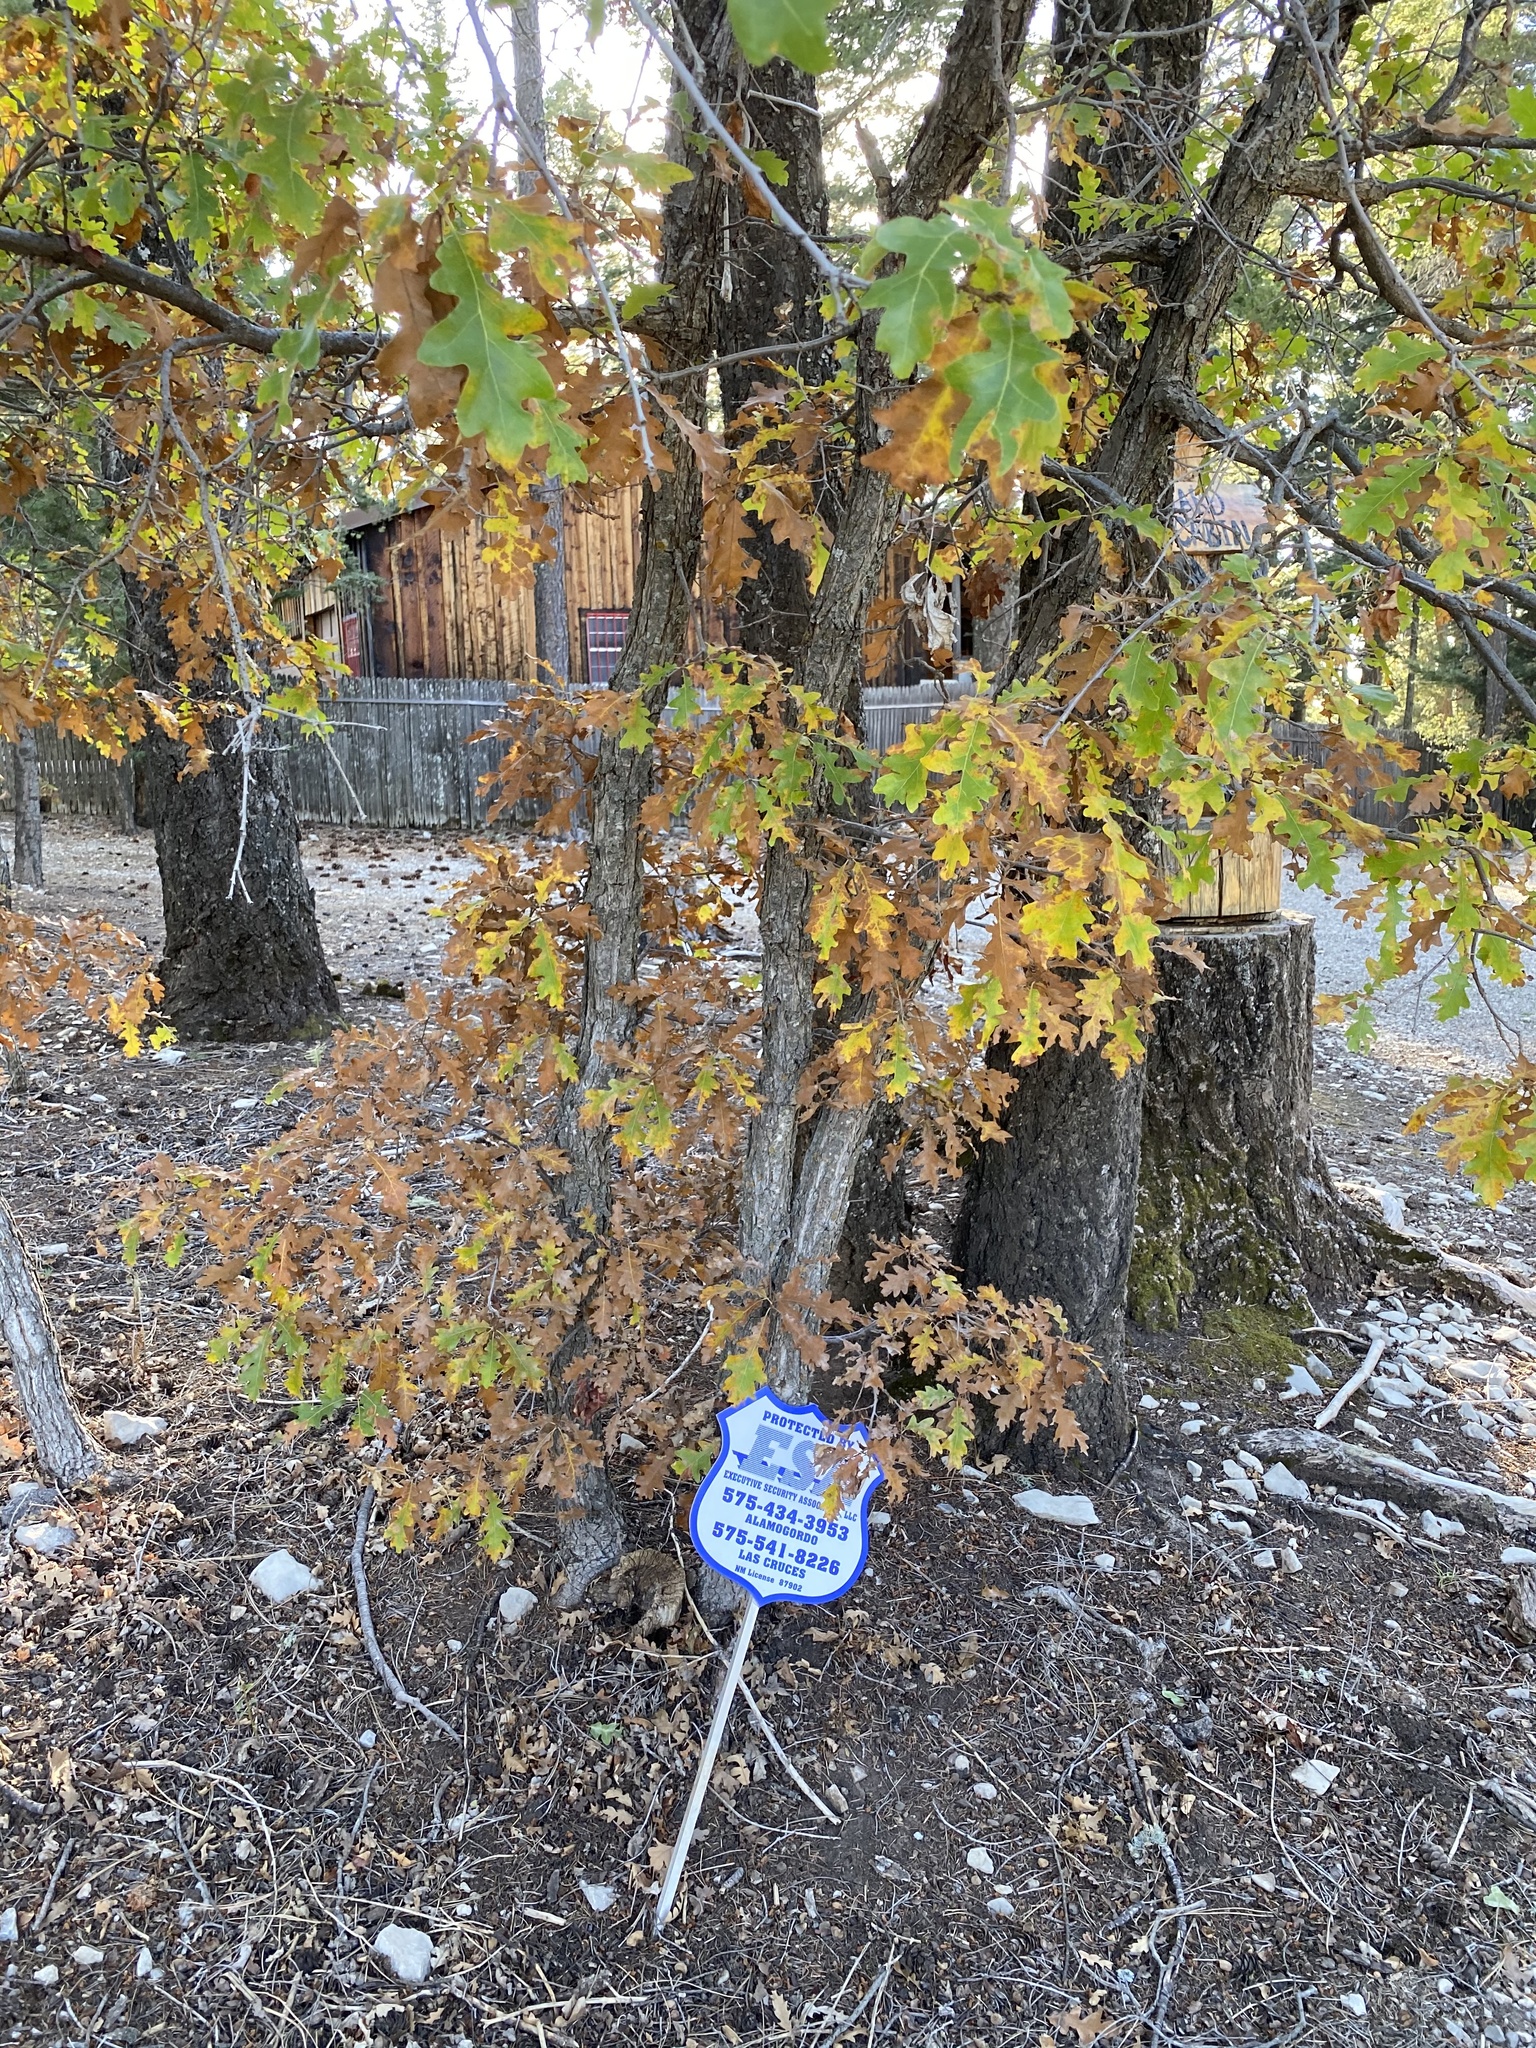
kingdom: Plantae
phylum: Tracheophyta
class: Magnoliopsida
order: Fagales
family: Fagaceae
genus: Quercus
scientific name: Quercus gambelii
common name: Gambel oak
